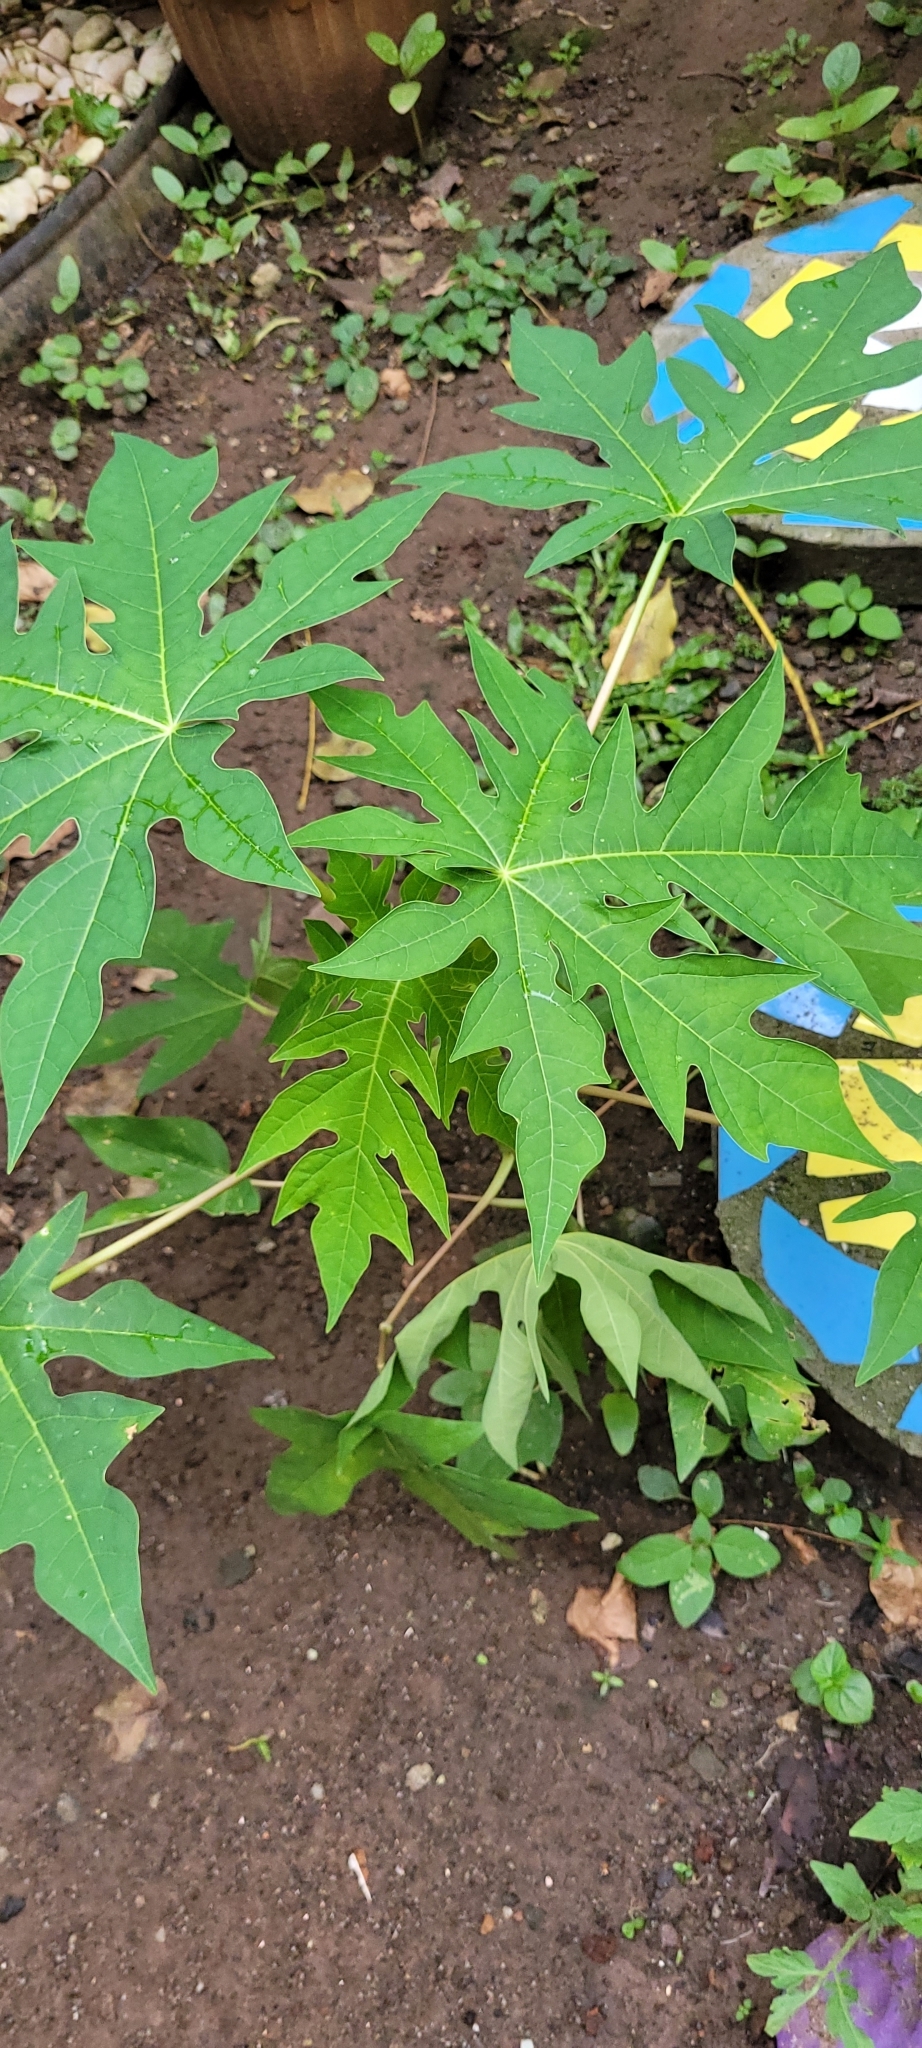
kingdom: Plantae
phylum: Tracheophyta
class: Magnoliopsida
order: Brassicales
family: Caricaceae
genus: Carica
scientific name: Carica papaya
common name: Papaya
